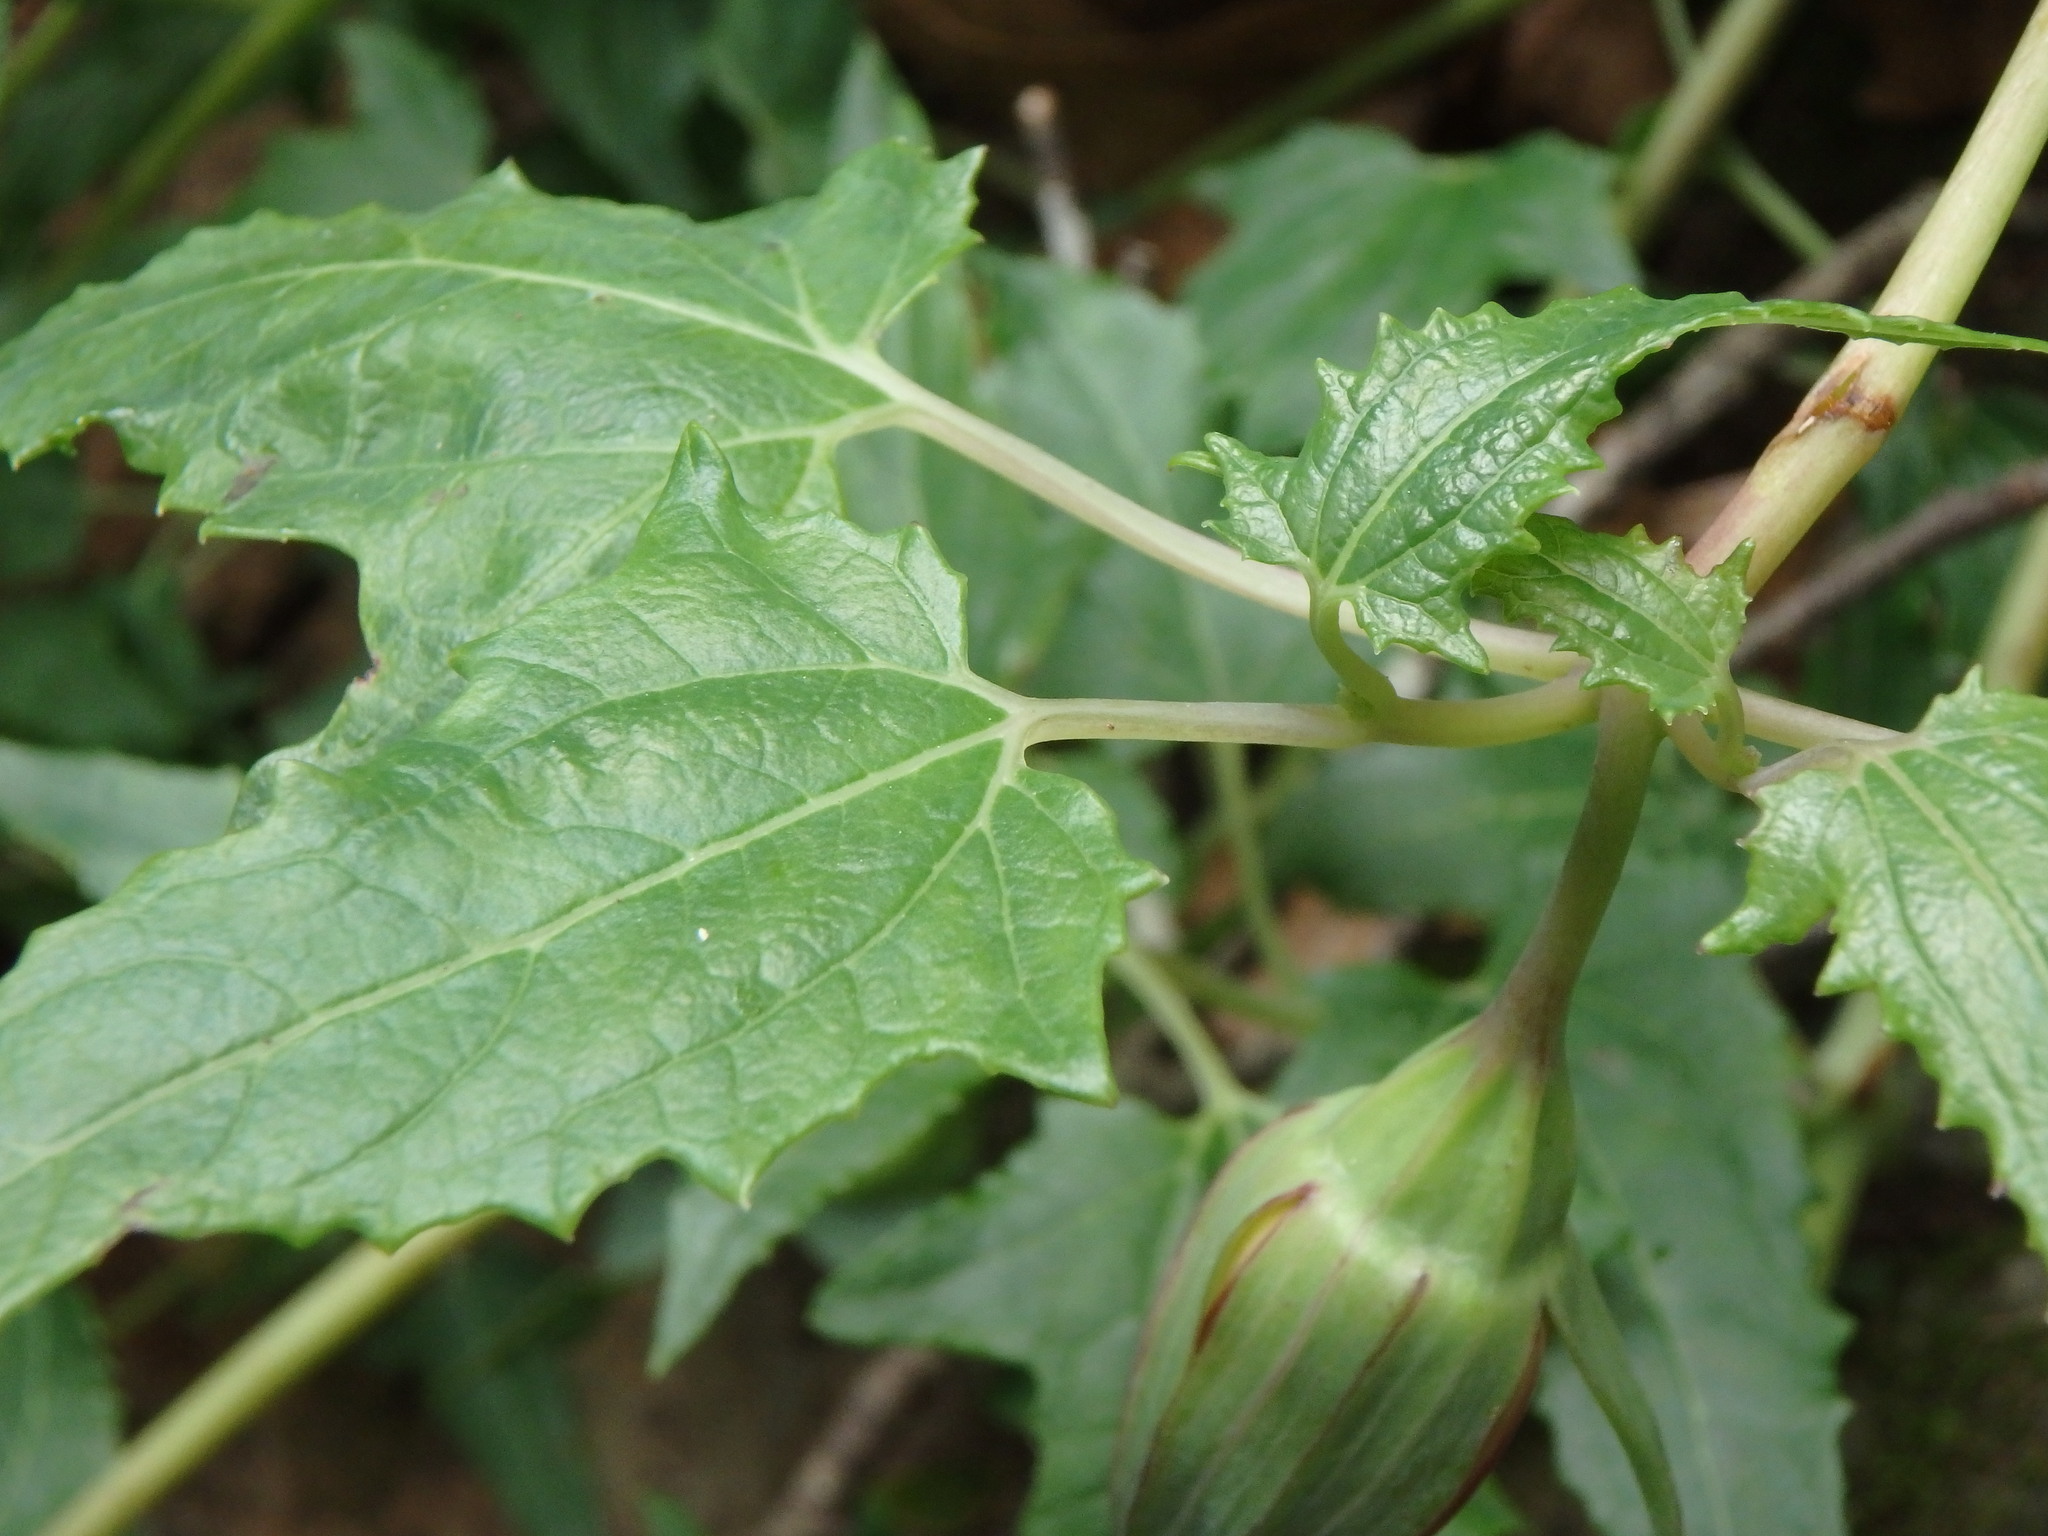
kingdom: Plantae
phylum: Tracheophyta
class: Magnoliopsida
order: Asterales
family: Campanulaceae
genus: Canarina
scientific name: Canarina canariensis
